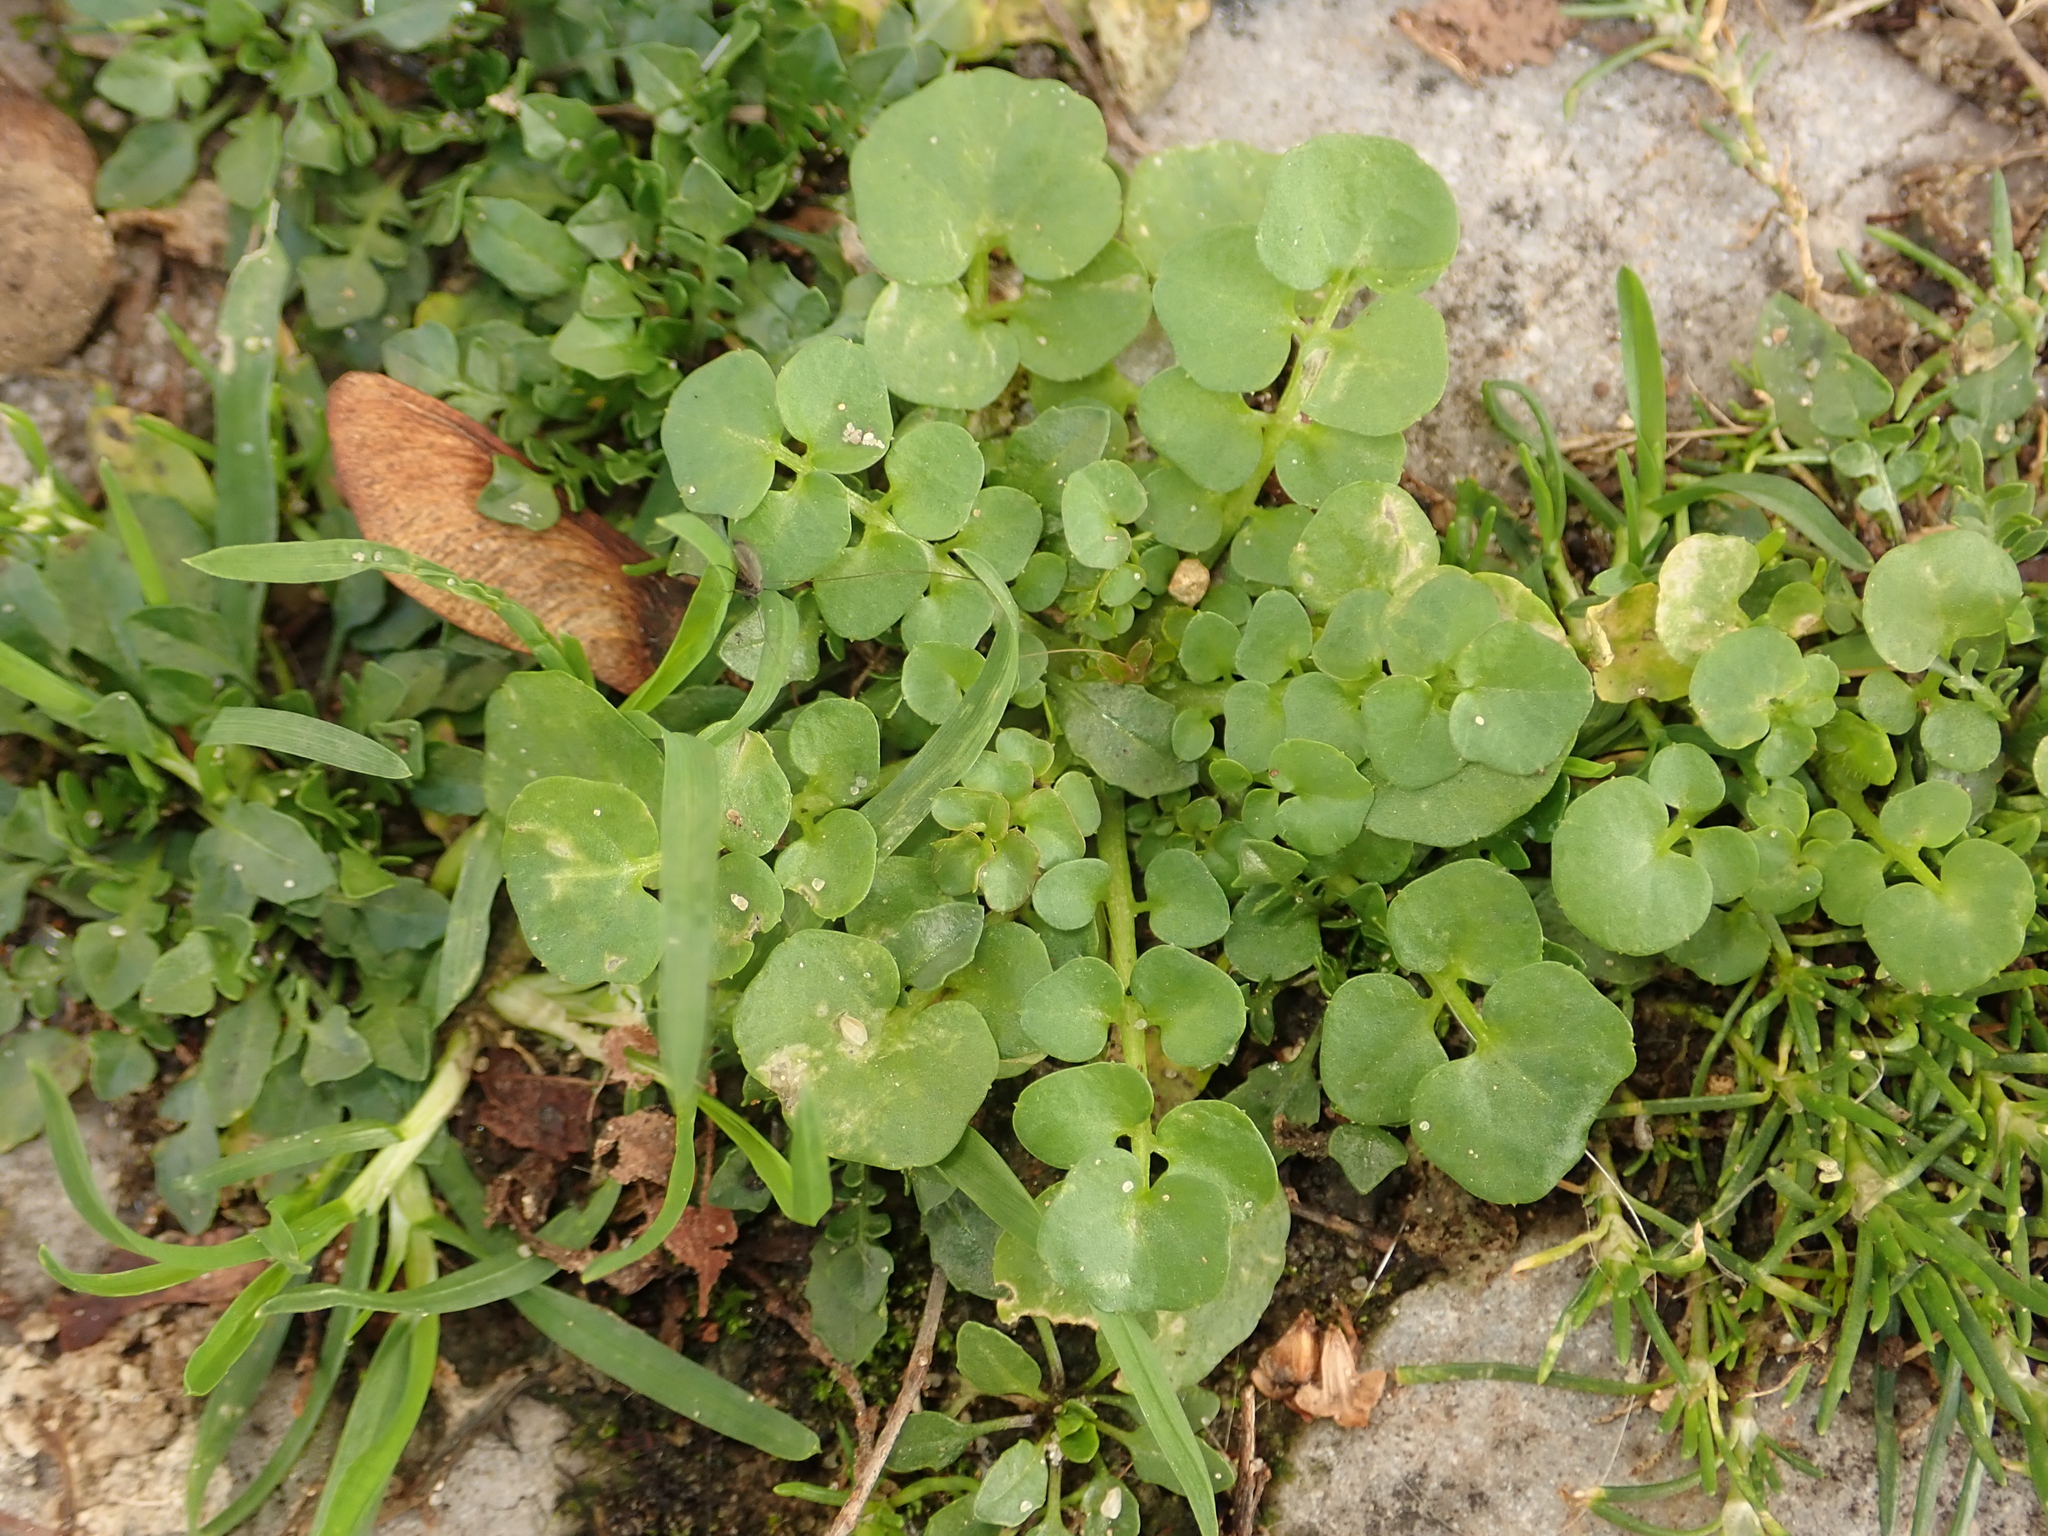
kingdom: Plantae
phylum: Tracheophyta
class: Magnoliopsida
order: Brassicales
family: Brassicaceae
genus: Cardamine
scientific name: Cardamine hirsuta
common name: Hairy bittercress
